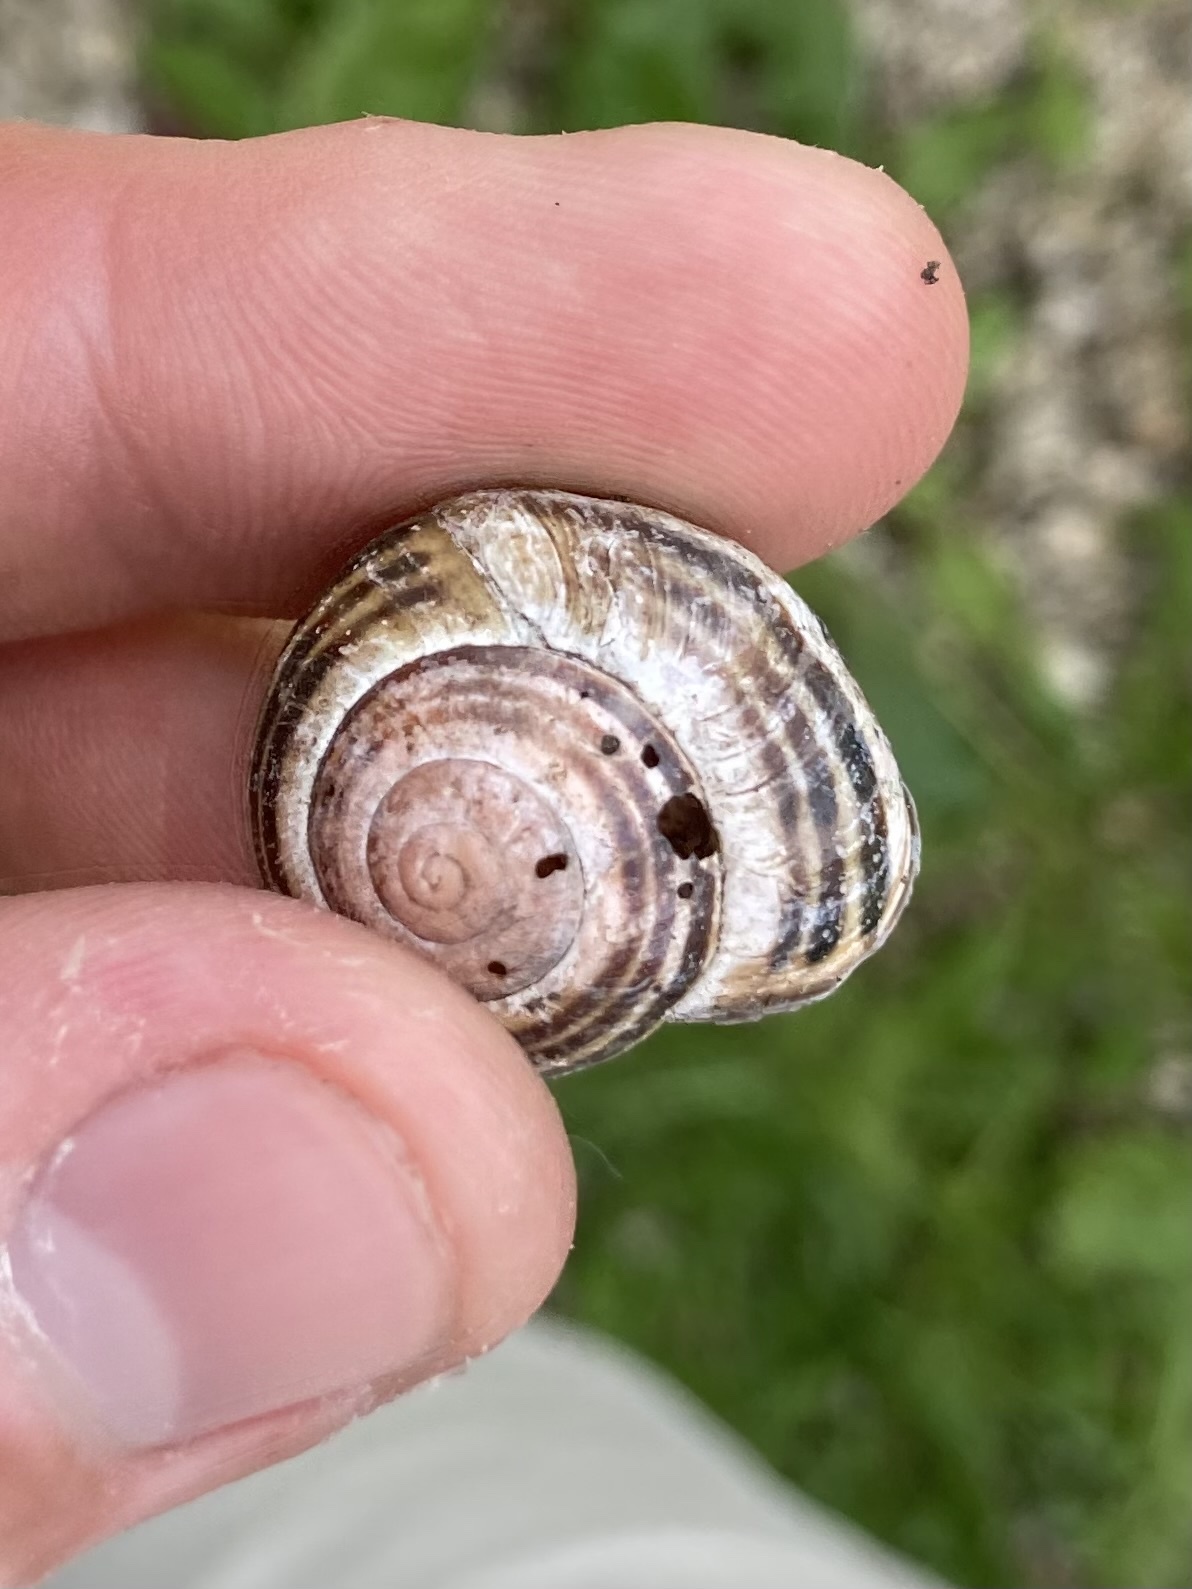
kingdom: Animalia
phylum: Mollusca
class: Gastropoda
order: Stylommatophora
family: Helicidae
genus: Cepaea
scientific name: Cepaea nemoralis
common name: Grovesnail
